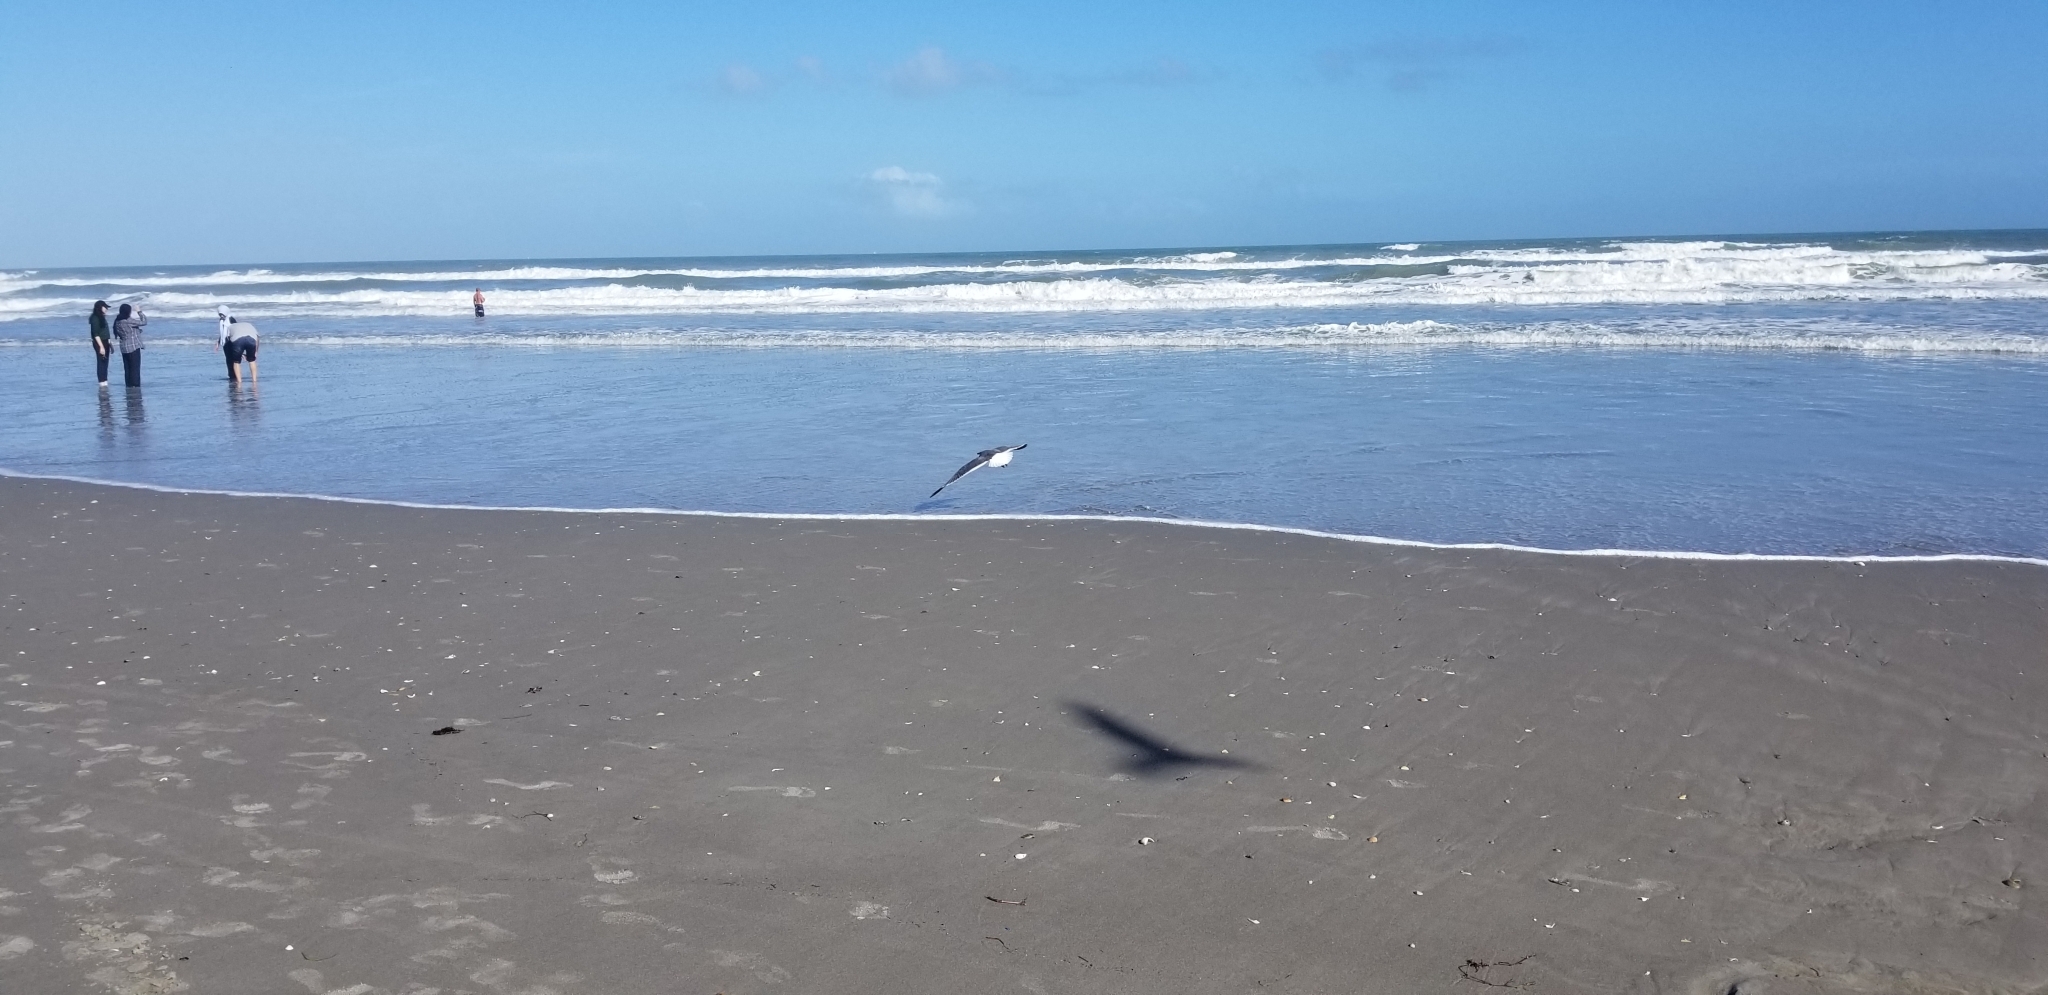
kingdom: Animalia
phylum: Chordata
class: Aves
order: Charadriiformes
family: Laridae
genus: Leucophaeus
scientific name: Leucophaeus atricilla
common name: Laughing gull
